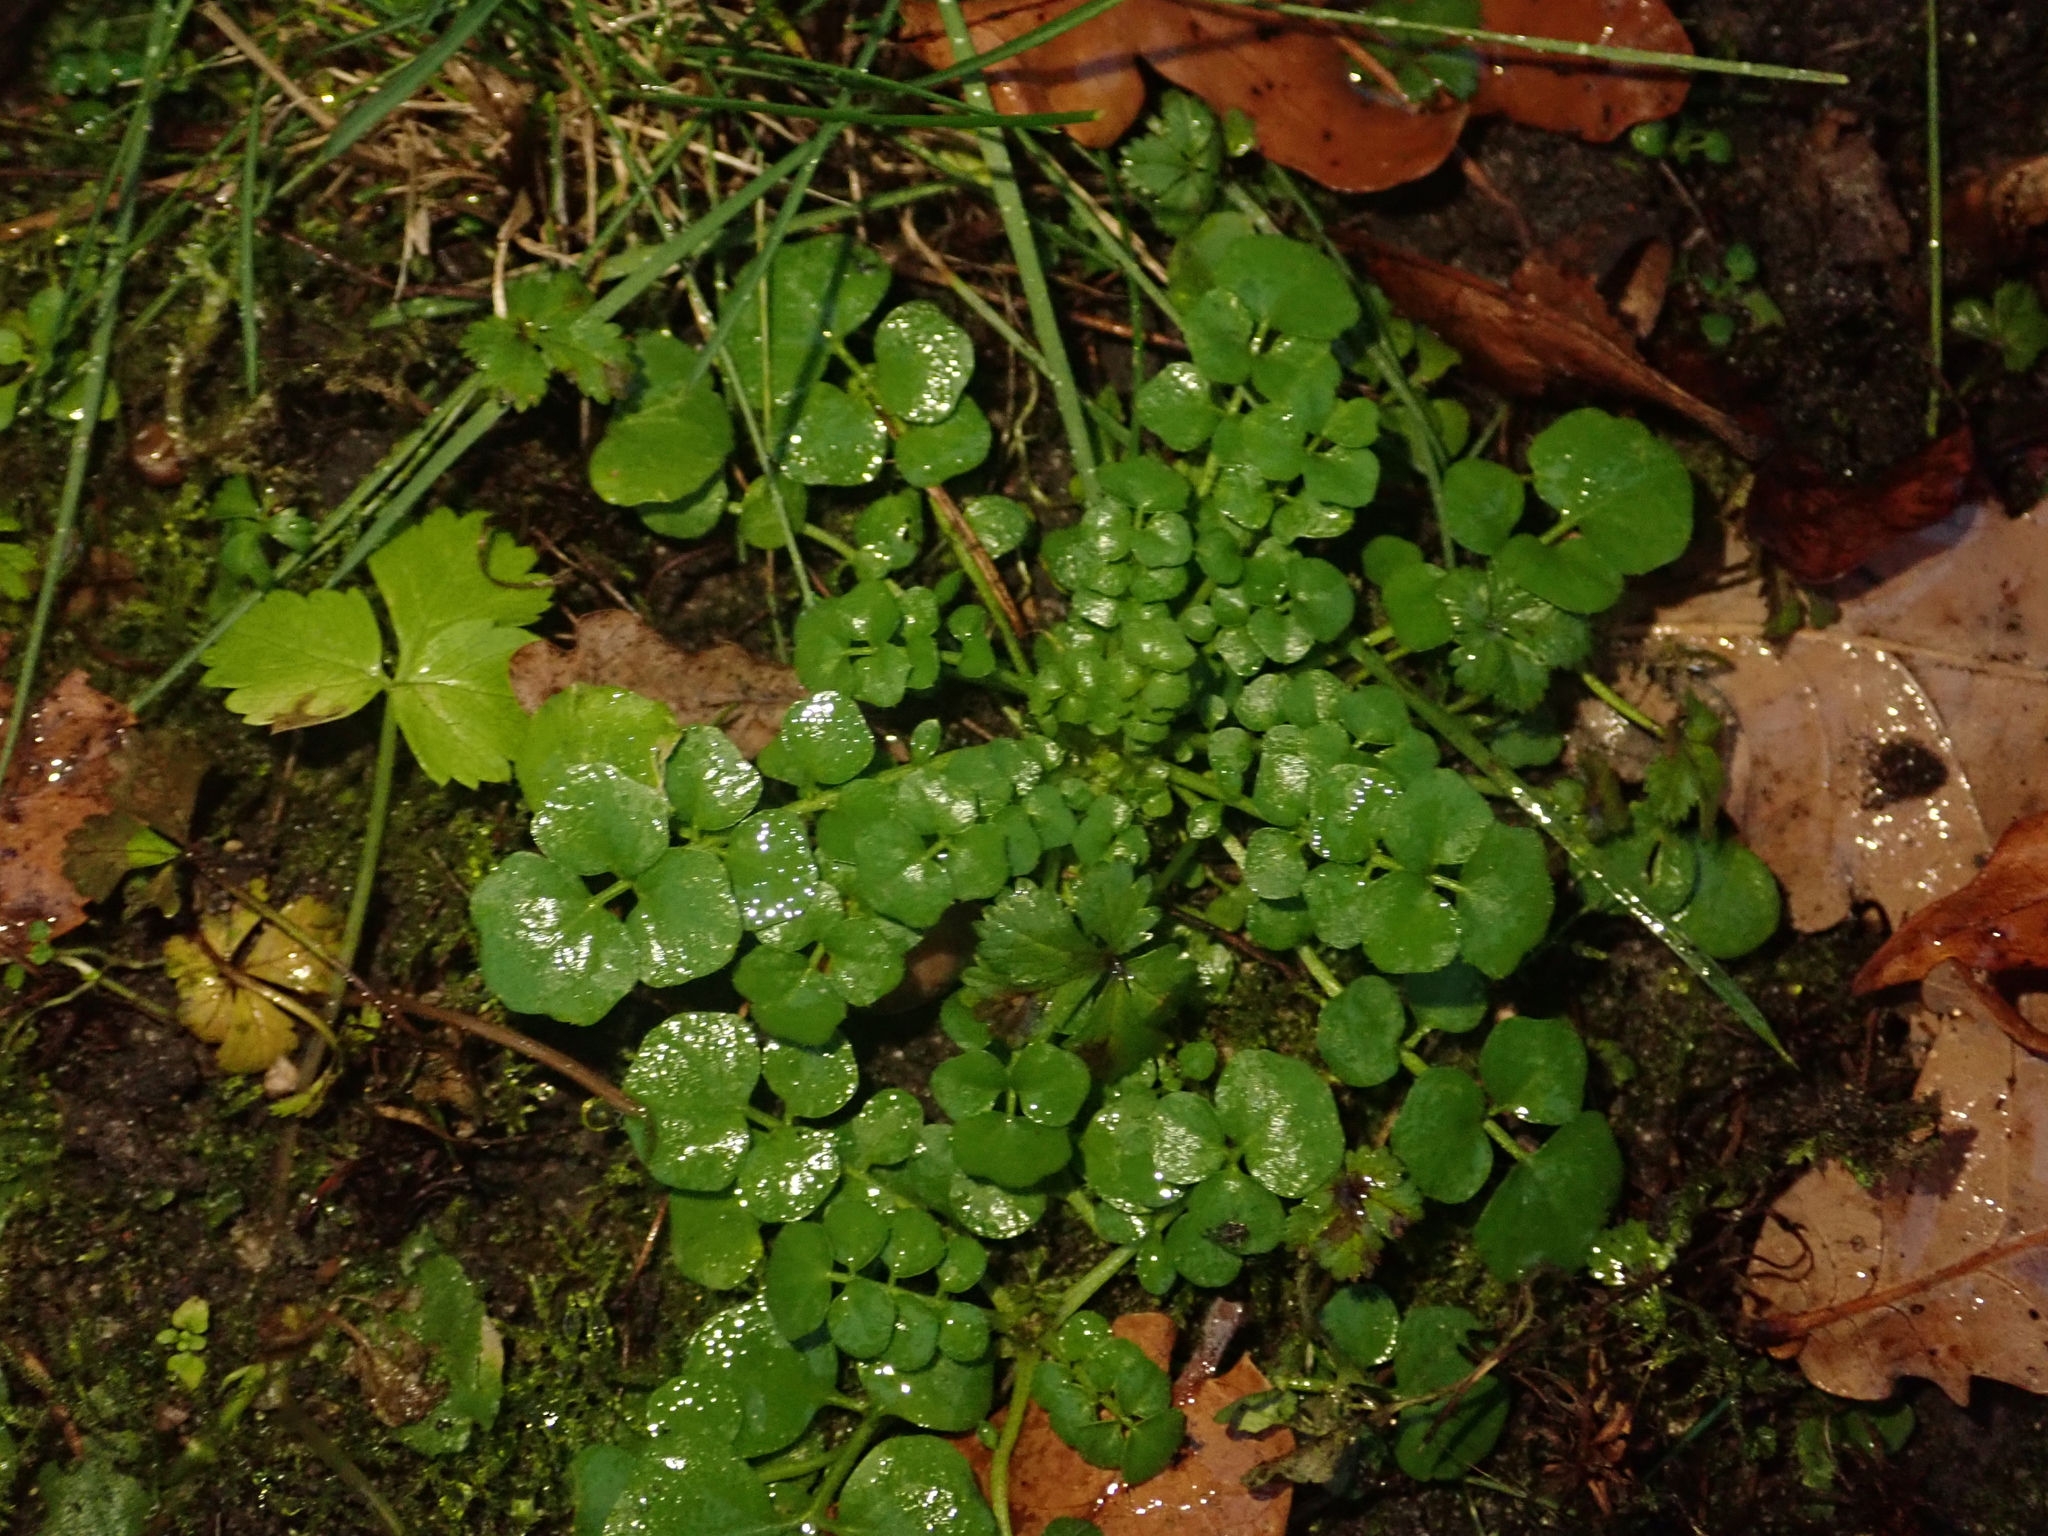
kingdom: Plantae
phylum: Tracheophyta
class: Magnoliopsida
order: Brassicales
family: Brassicaceae
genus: Cardamine
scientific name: Cardamine hirsuta
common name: Hairy bittercress
